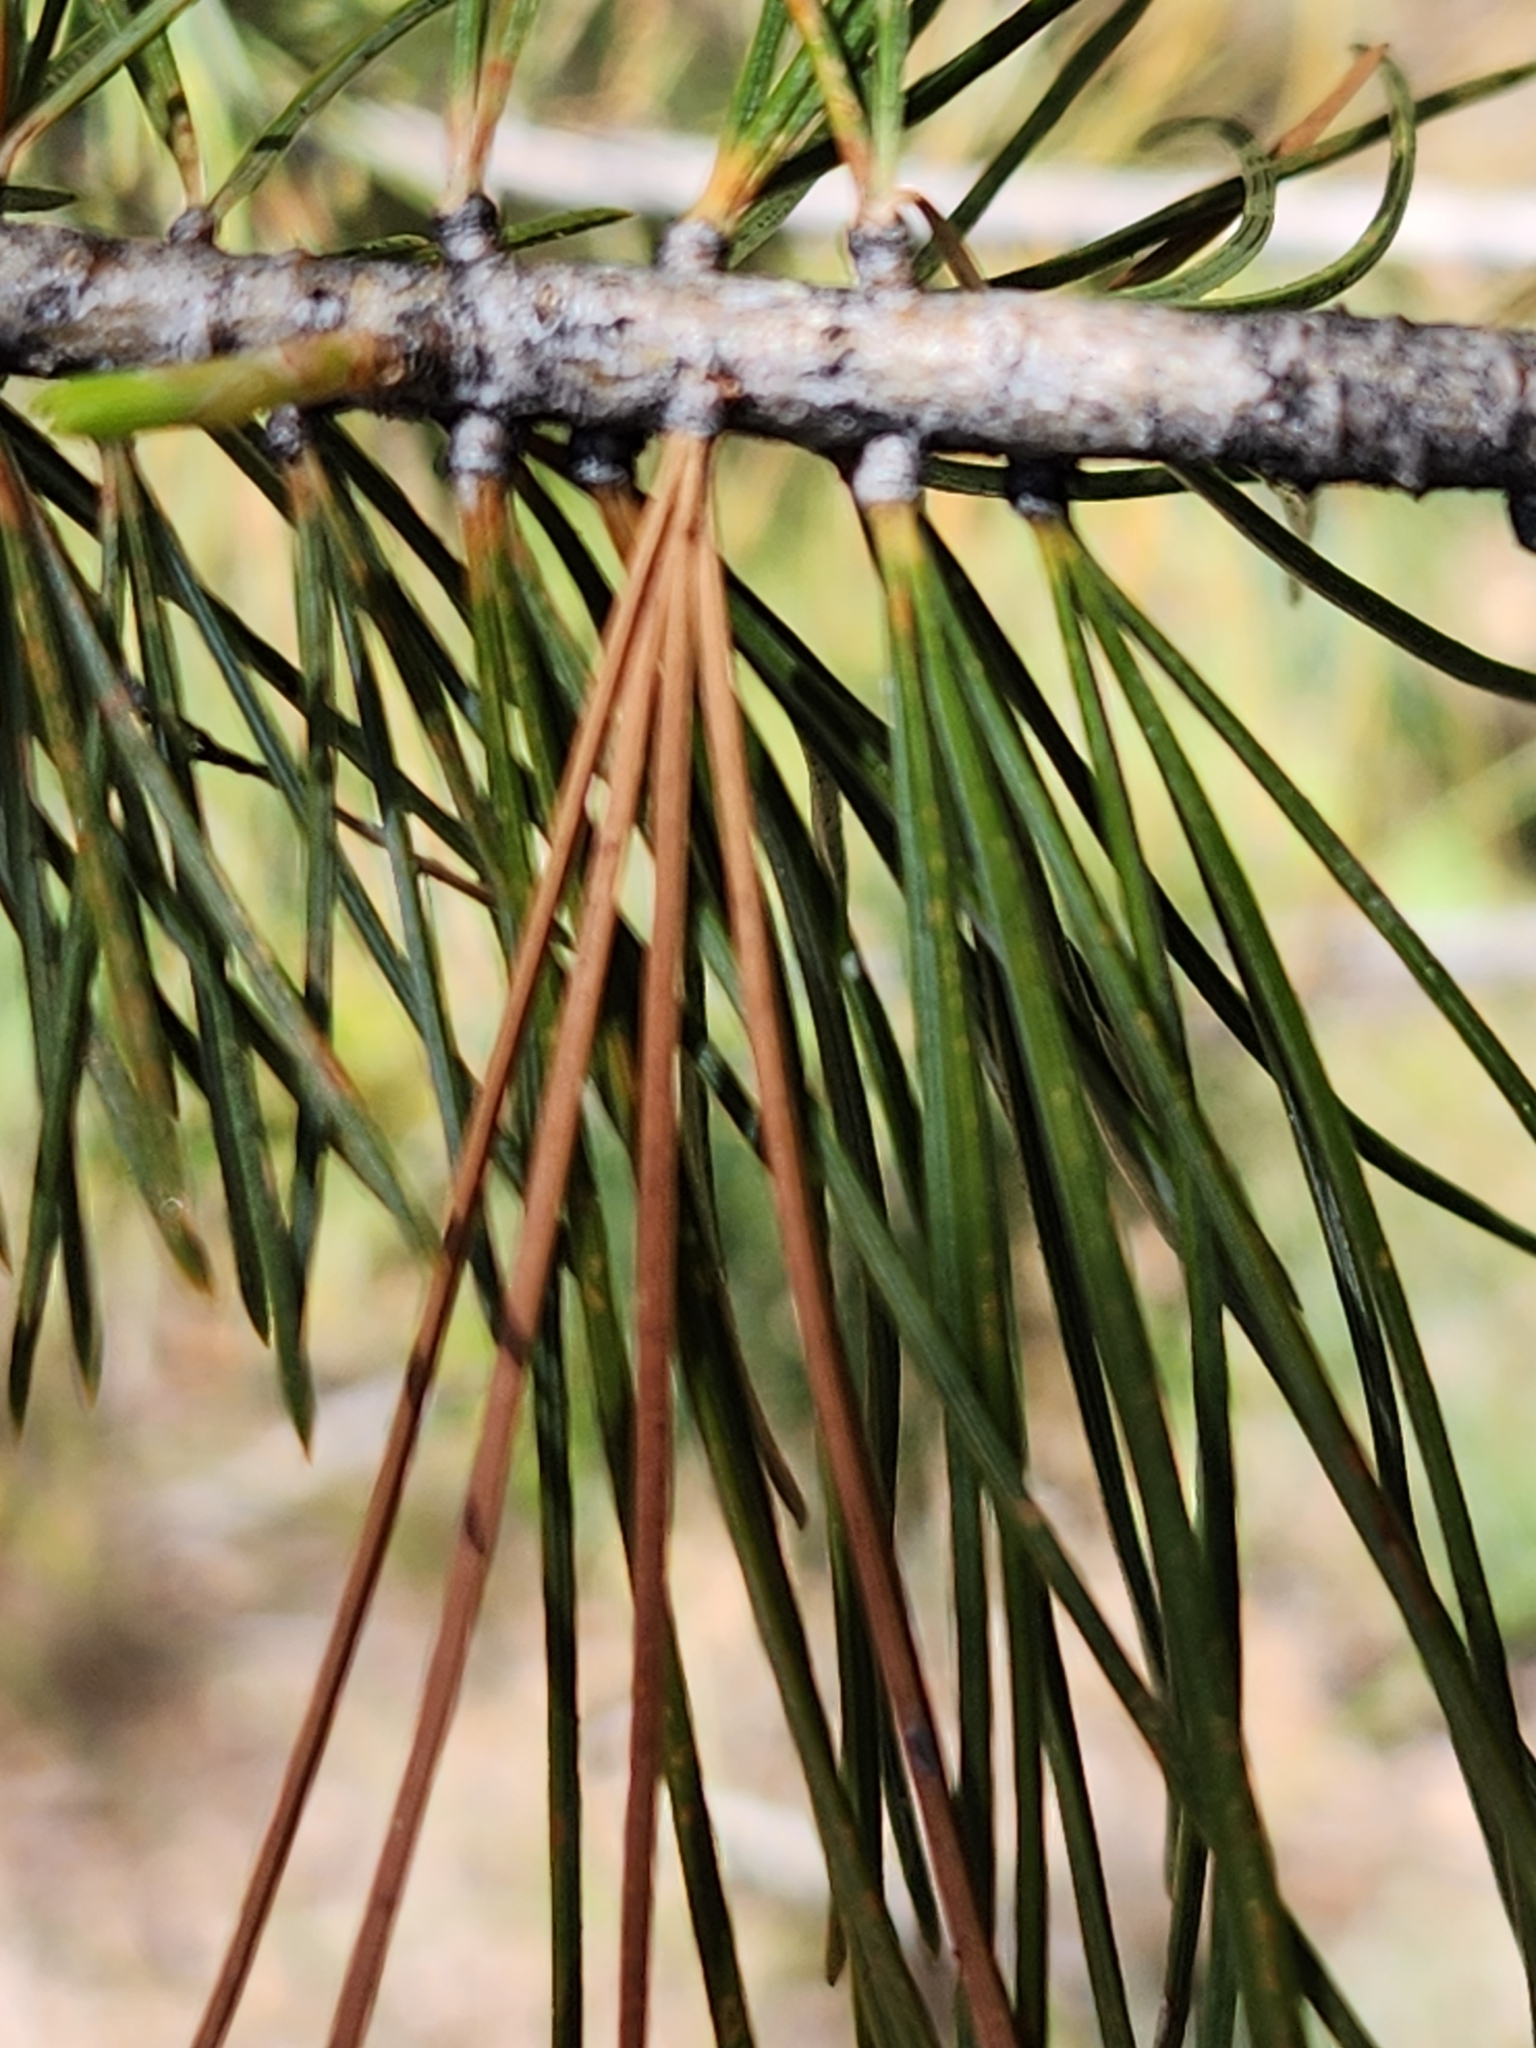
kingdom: Plantae
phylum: Tracheophyta
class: Pinopsida
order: Pinales
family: Pinaceae
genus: Pinus
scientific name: Pinus lambertiana
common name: Sugar pine
